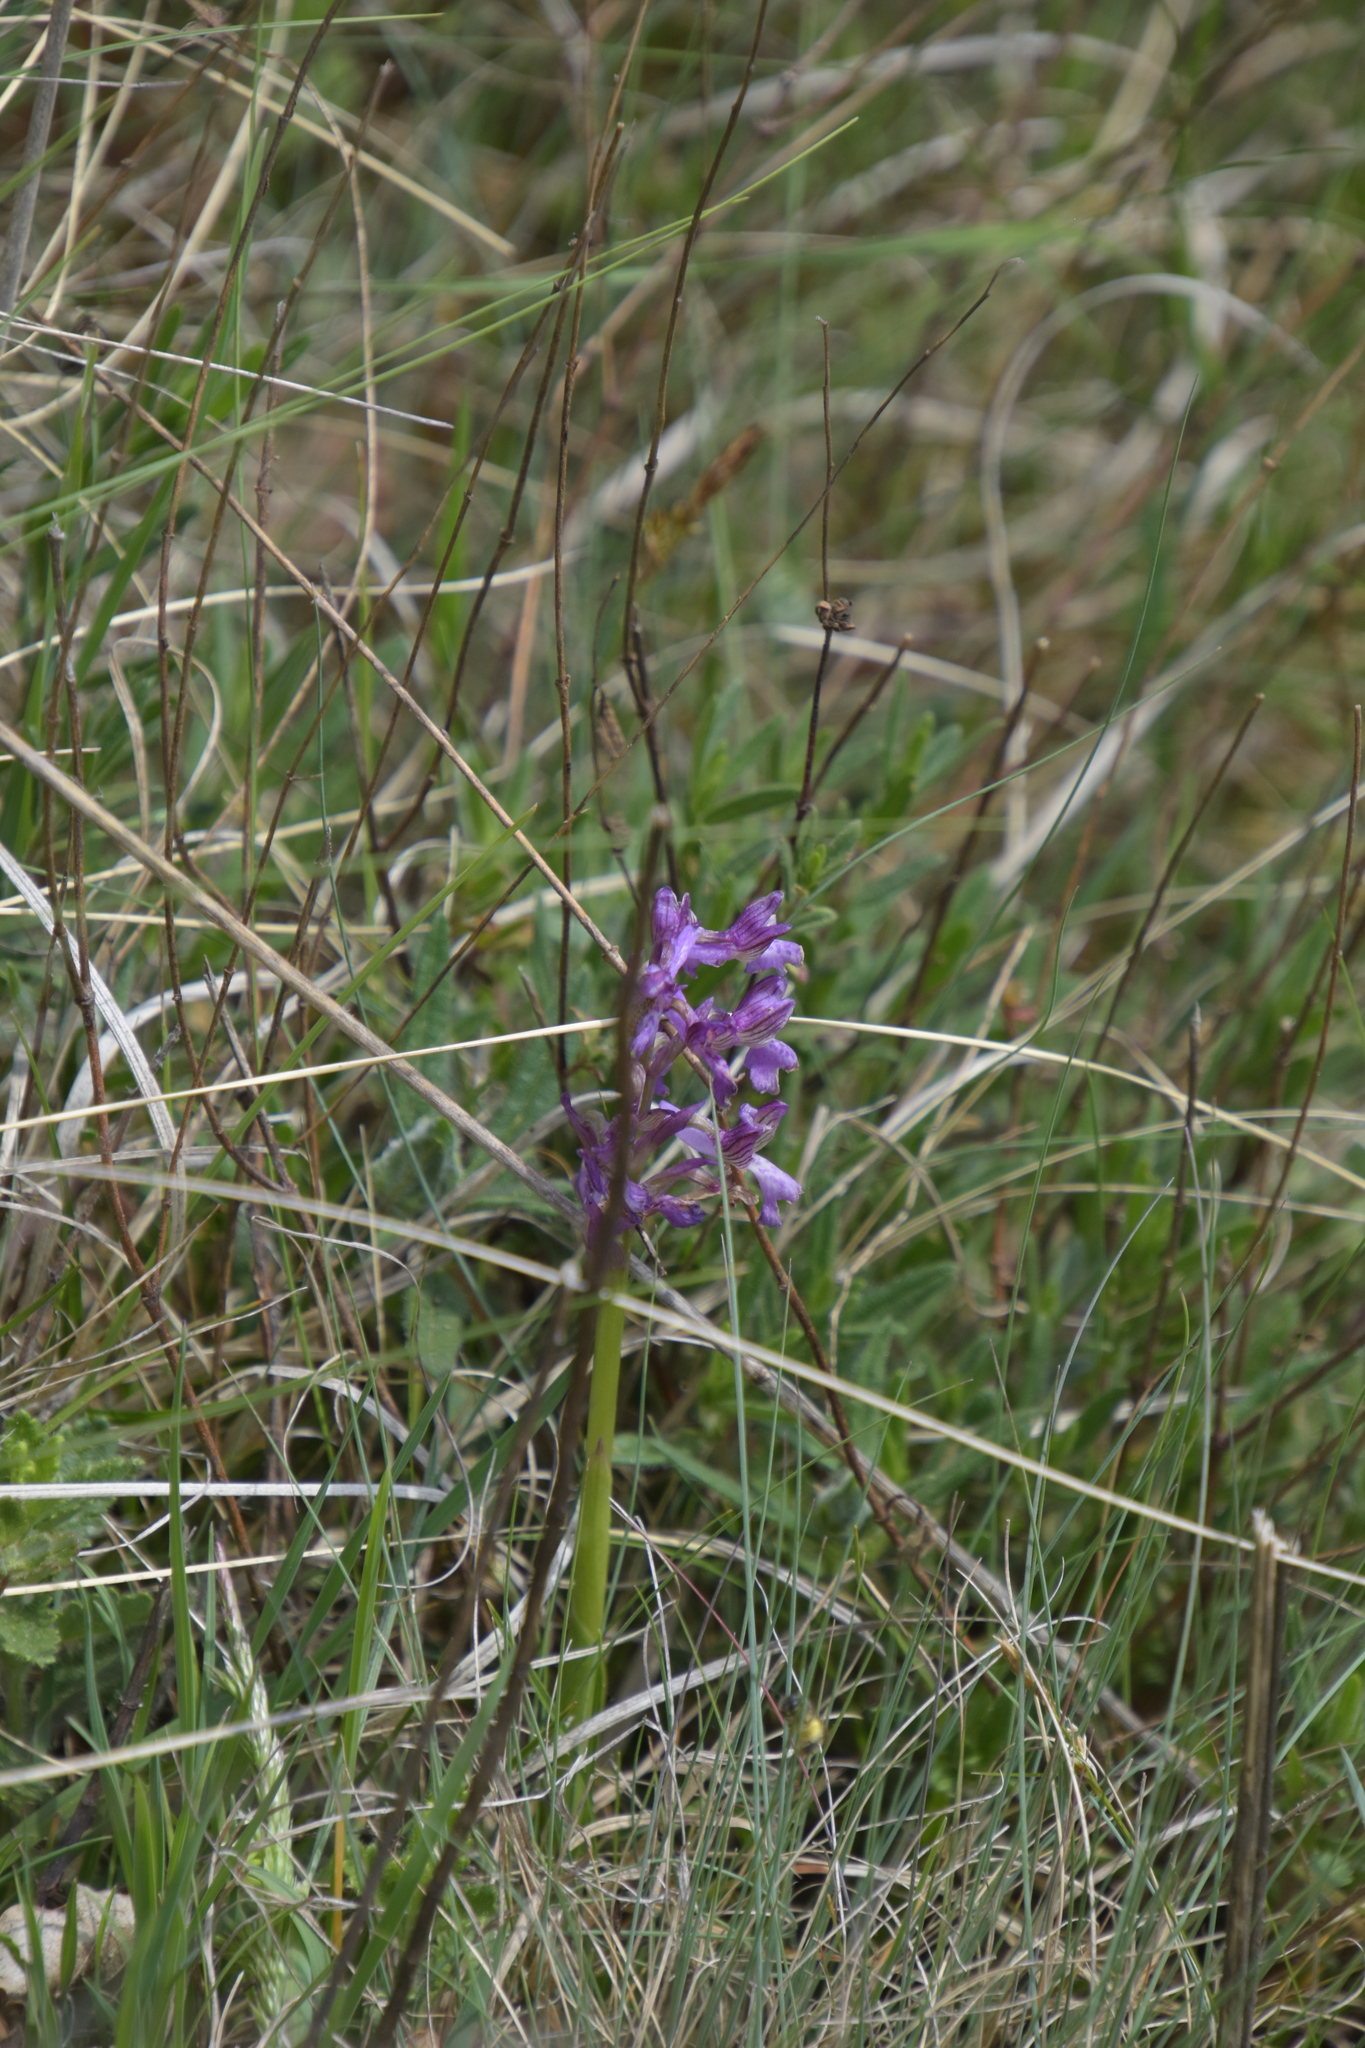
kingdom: Plantae
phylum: Tracheophyta
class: Liliopsida
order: Asparagales
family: Orchidaceae
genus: Anacamptis
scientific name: Anacamptis morio
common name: Green-winged orchid
